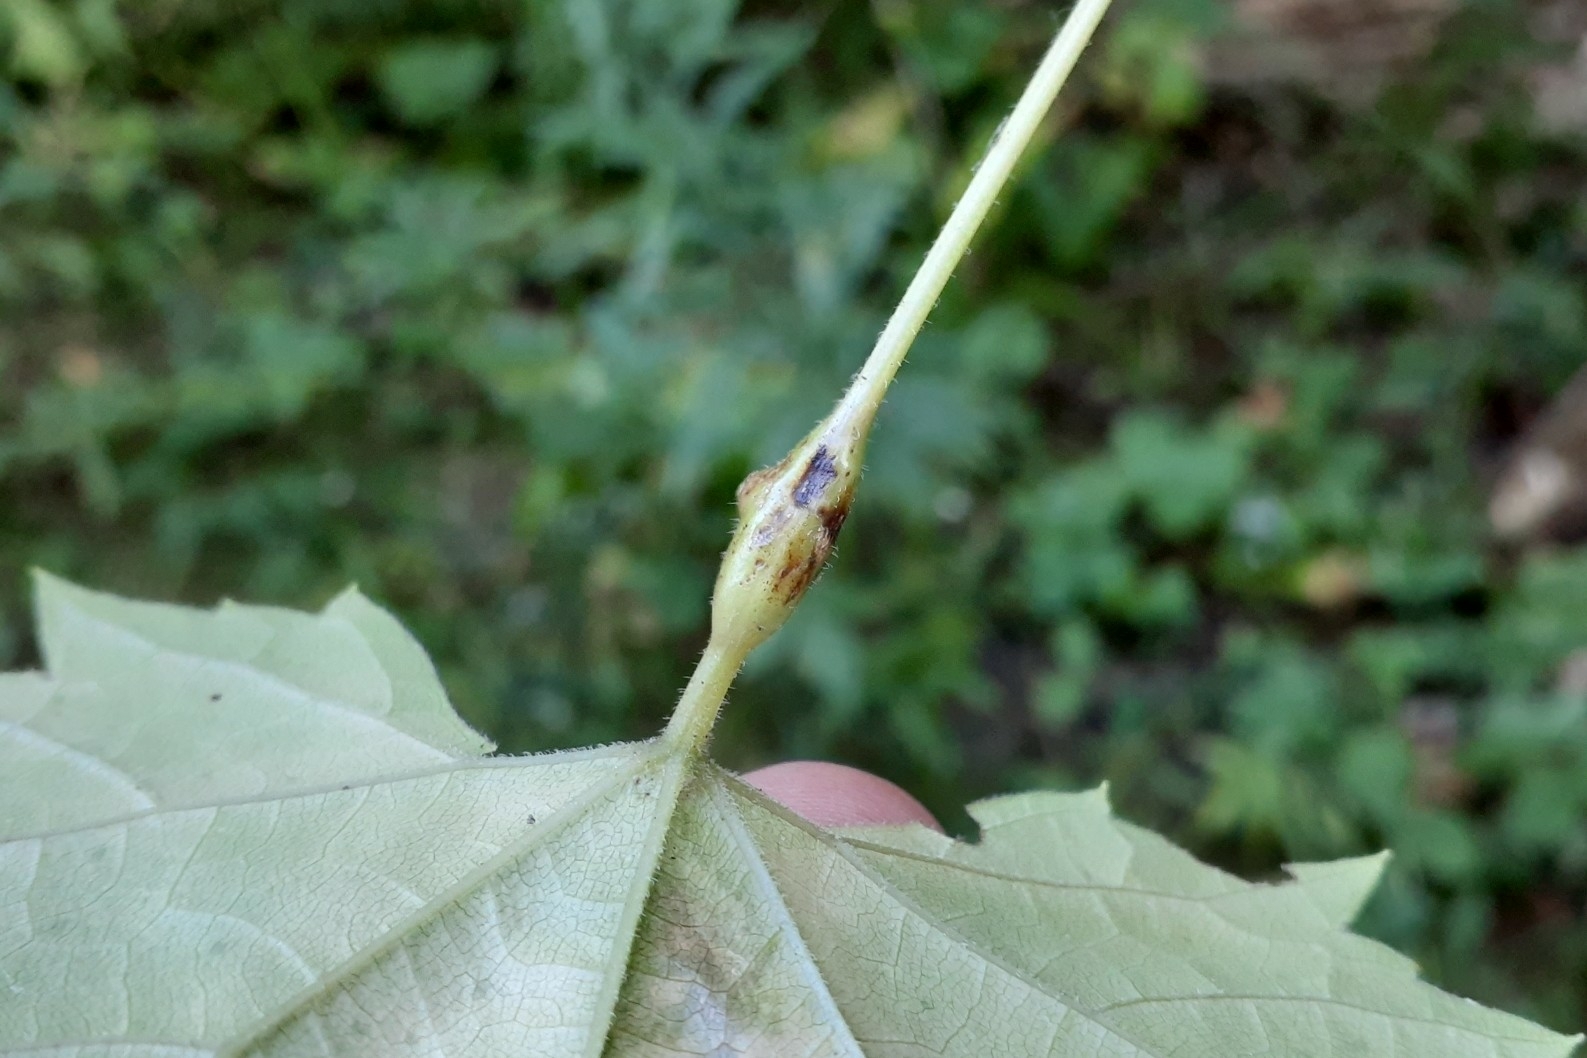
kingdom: Animalia
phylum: Arthropoda
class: Insecta
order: Diptera
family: Cecidomyiidae
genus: Neolasioptera
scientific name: Neolasioptera vitinea
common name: Grape leaf petiole gall
